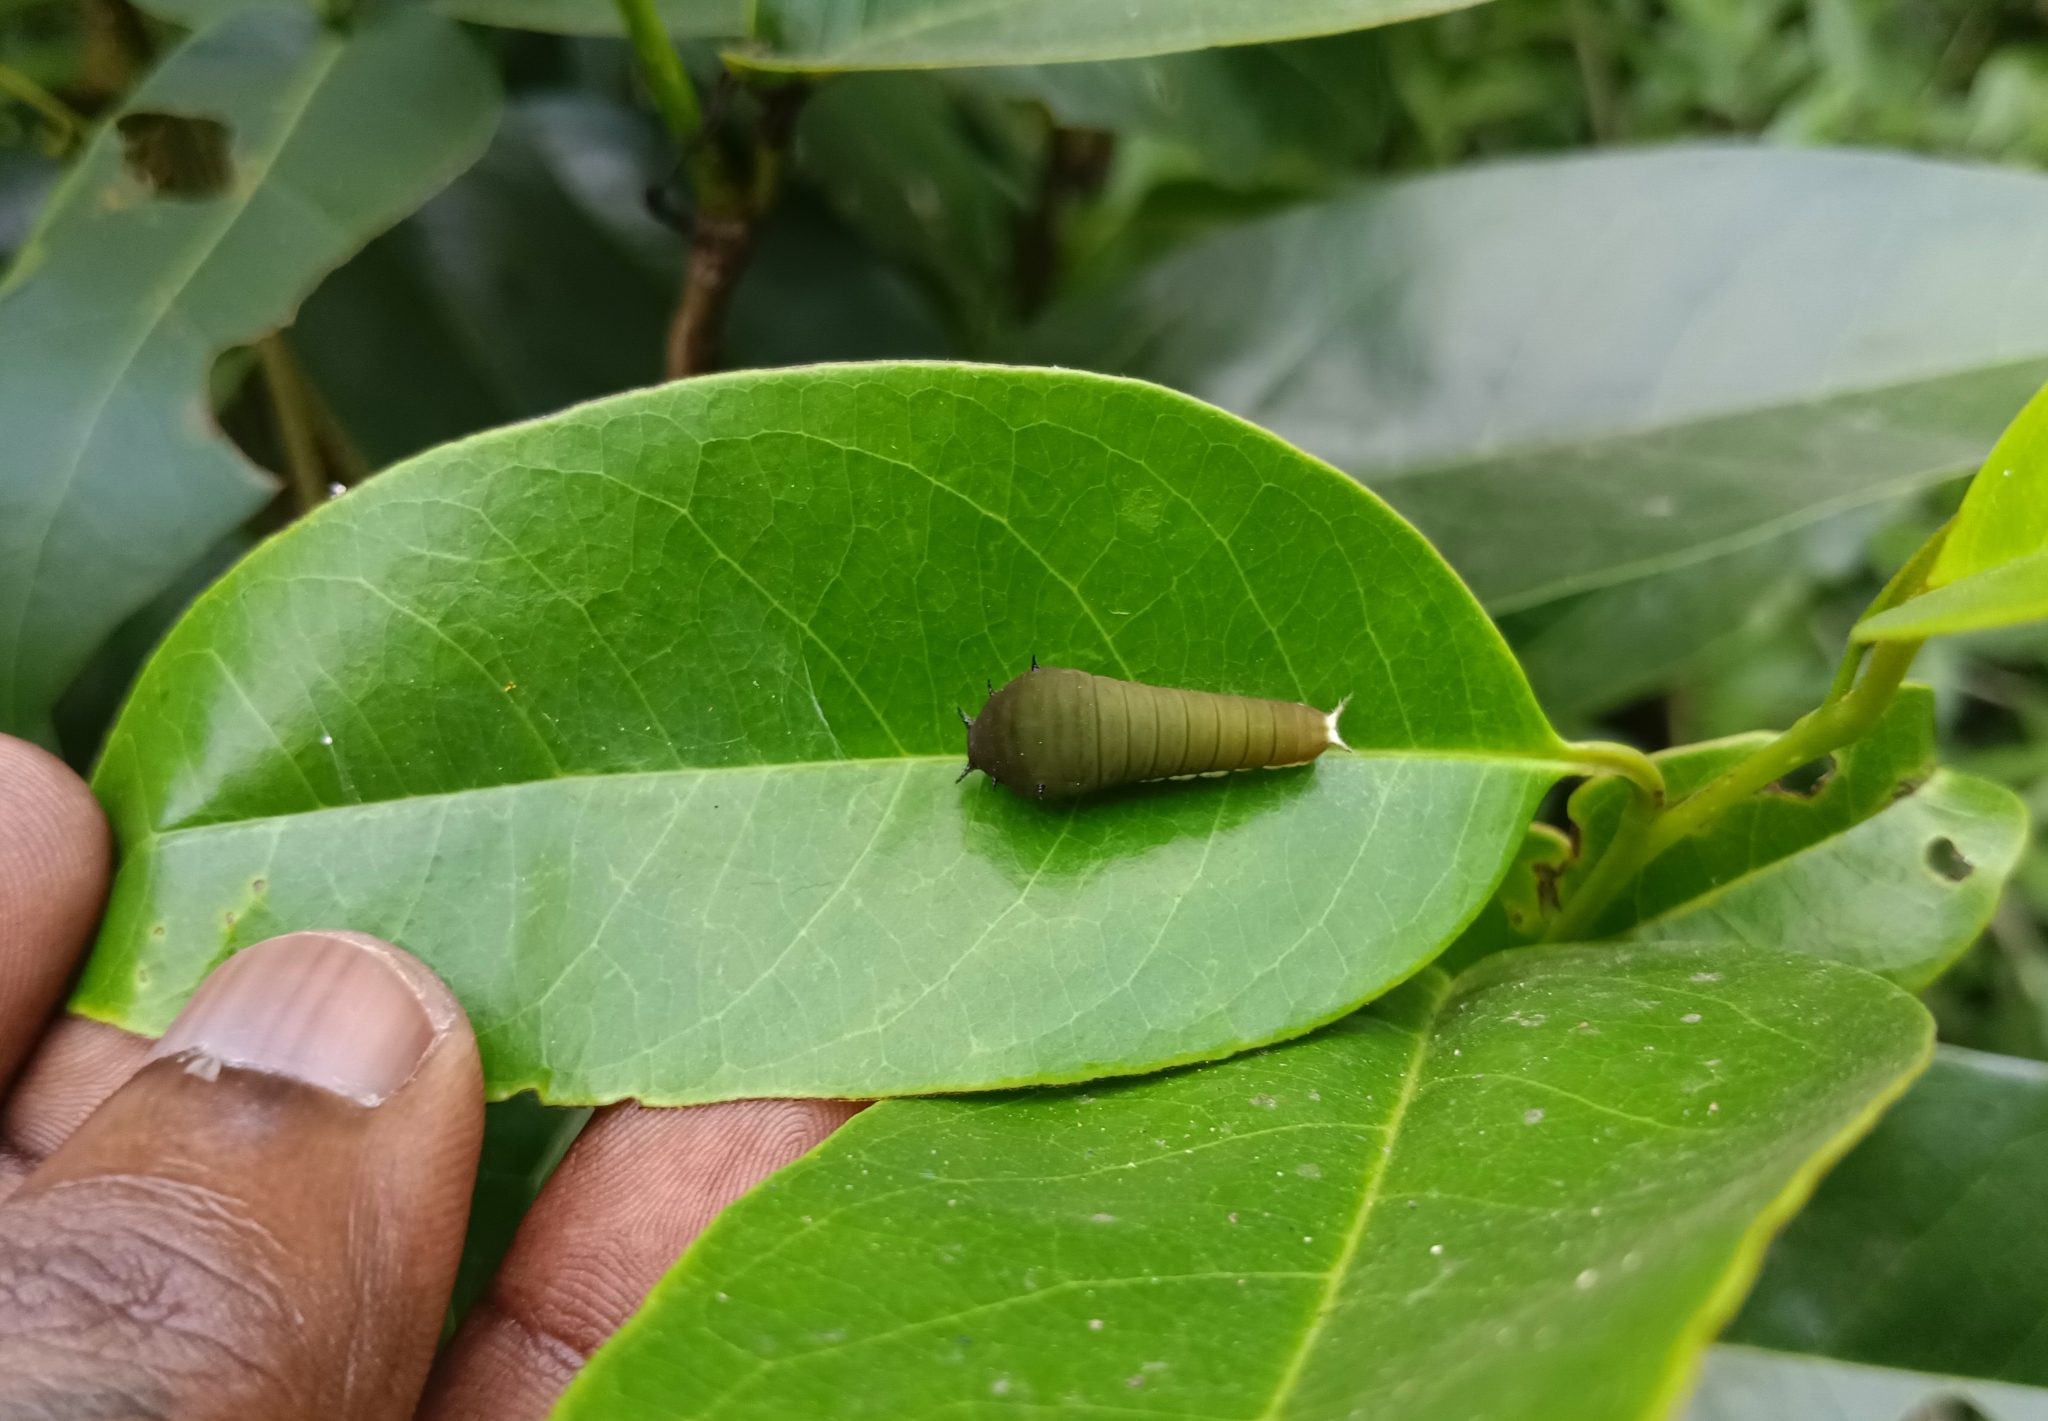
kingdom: Animalia
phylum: Arthropoda
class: Insecta
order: Lepidoptera
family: Papilionidae
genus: Graphium
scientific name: Graphium doson
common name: Common jay
